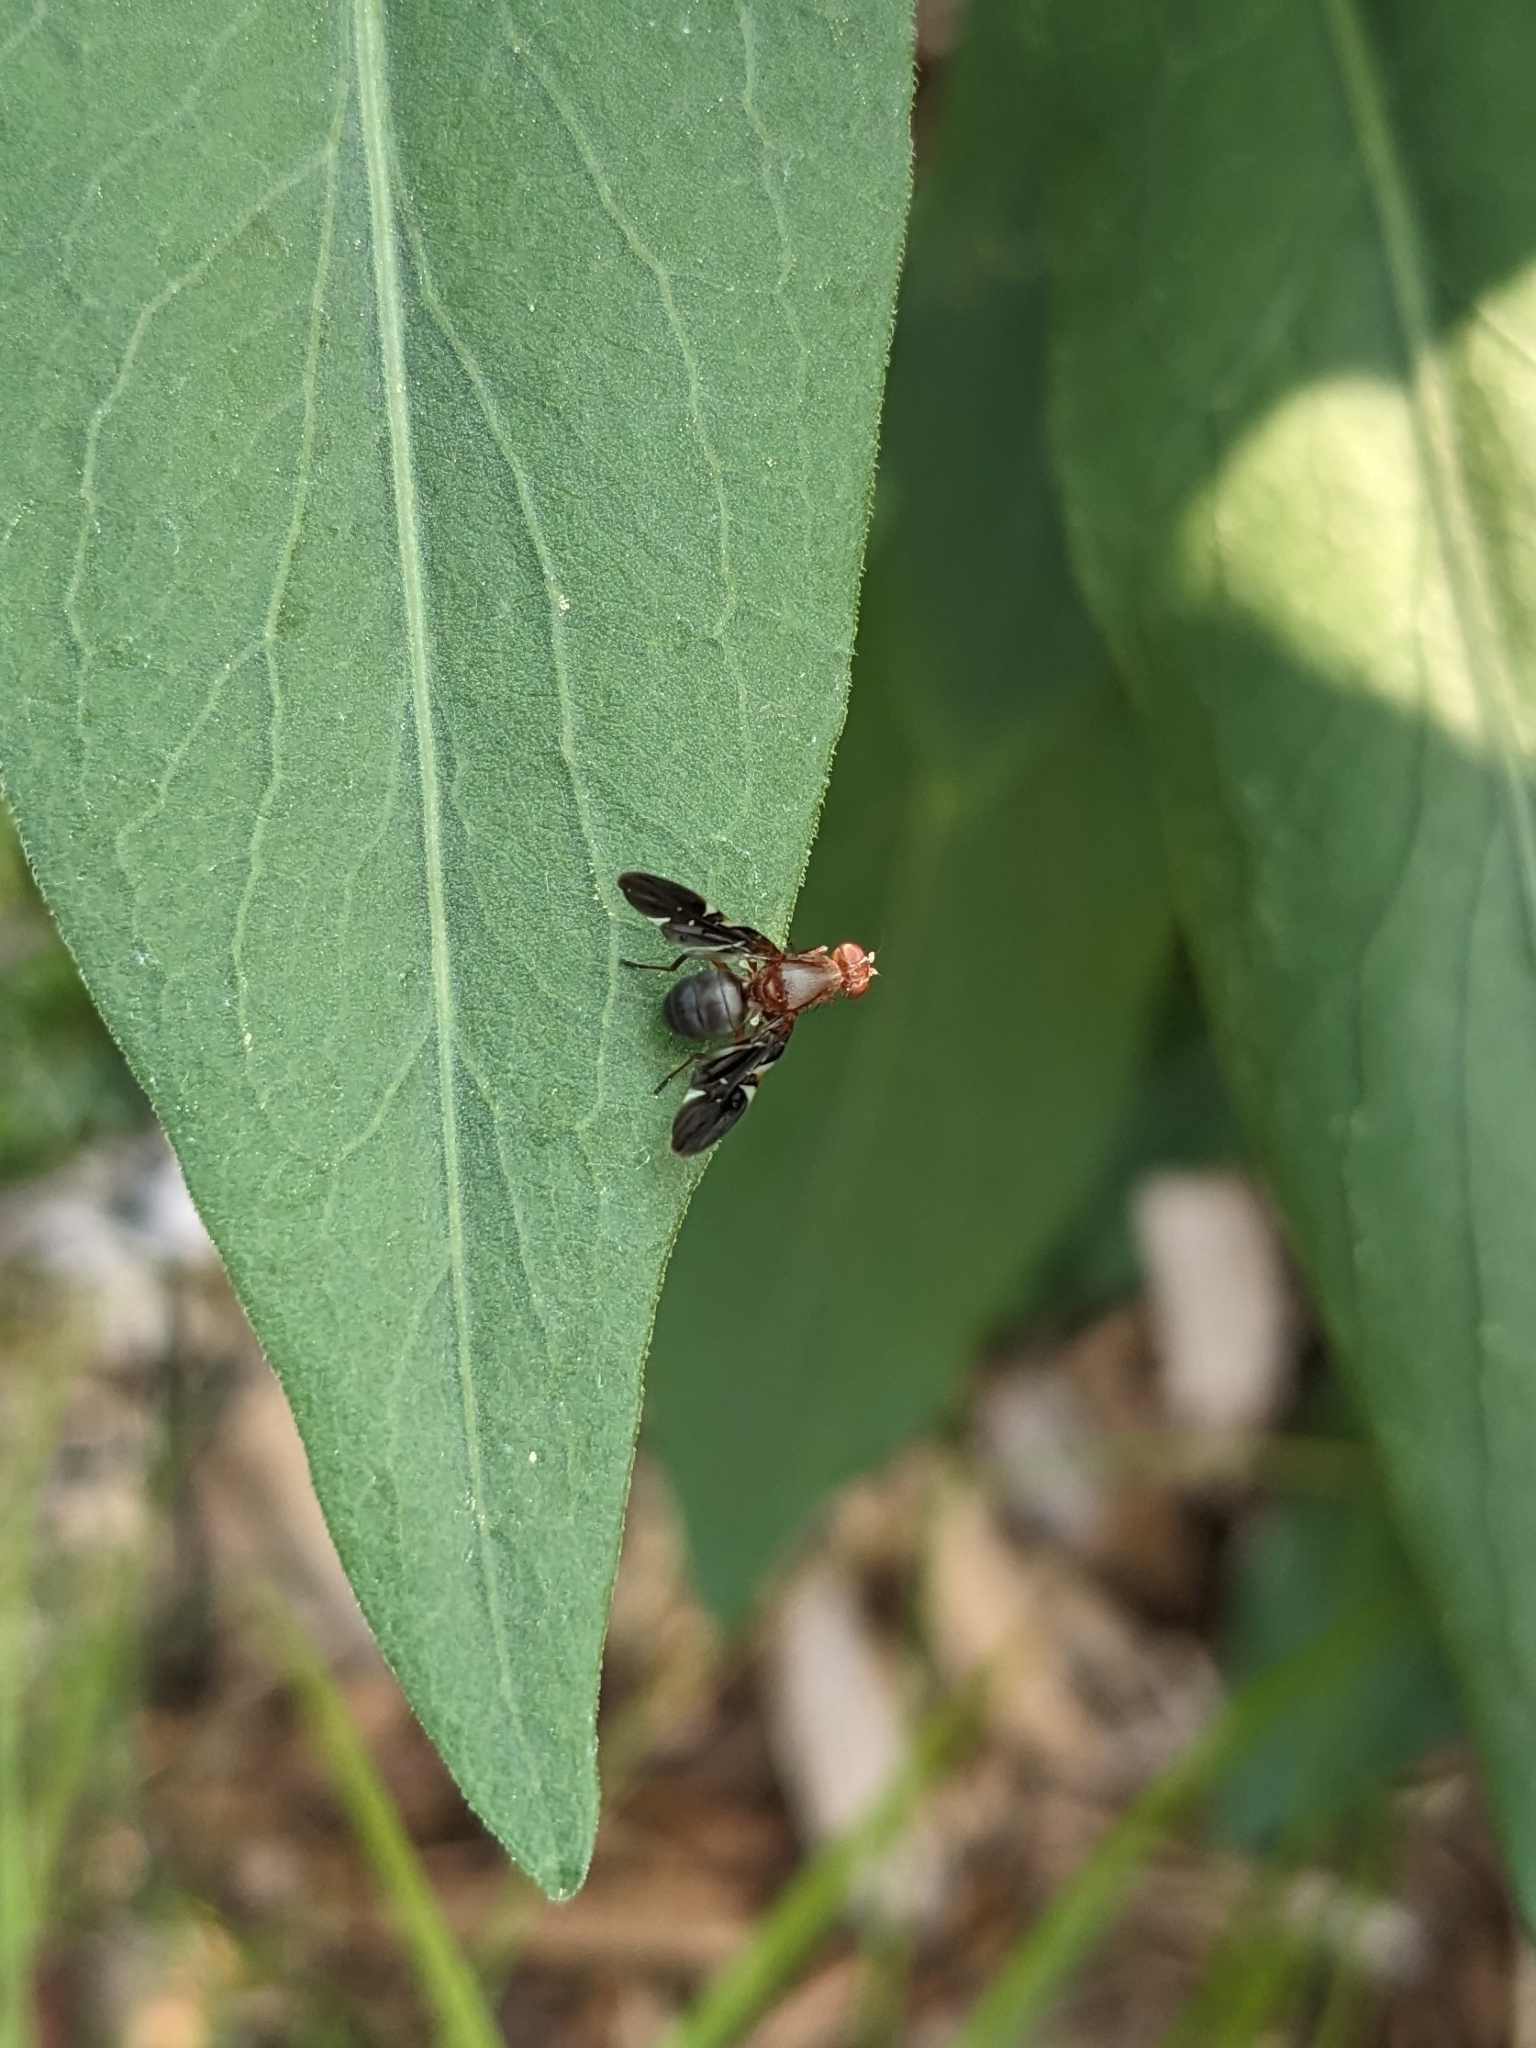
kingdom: Animalia
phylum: Arthropoda
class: Insecta
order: Diptera
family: Ulidiidae
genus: Delphinia
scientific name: Delphinia picta
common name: Common picture-winged fly
